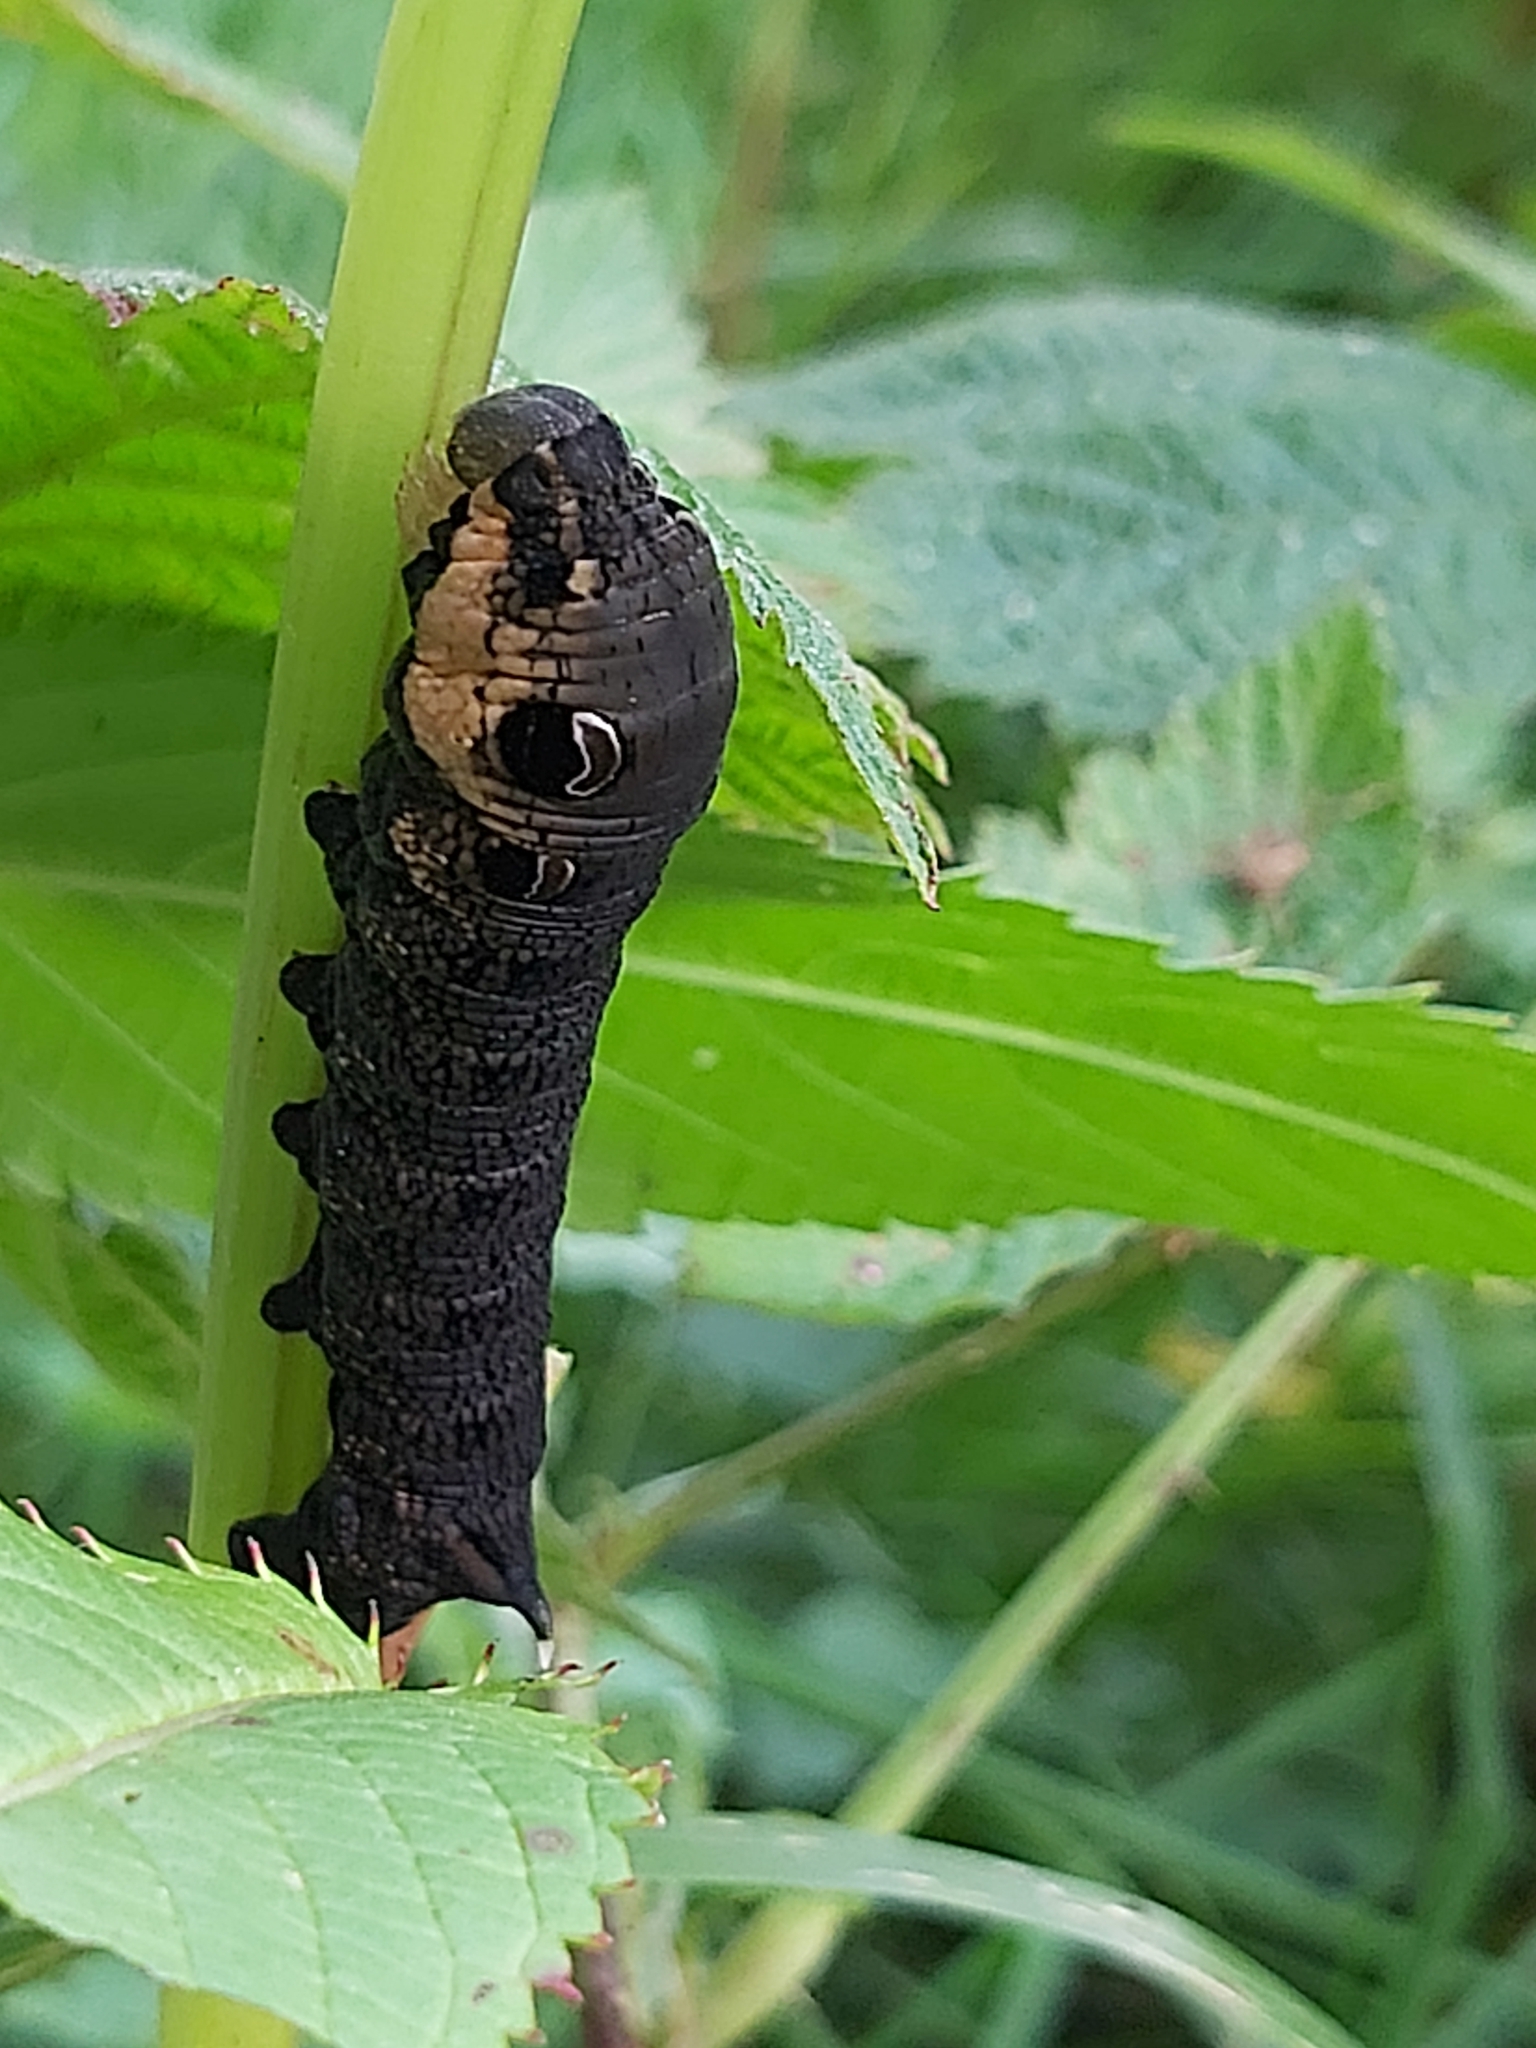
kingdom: Animalia
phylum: Arthropoda
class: Insecta
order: Lepidoptera
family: Sphingidae
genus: Deilephila
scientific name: Deilephila elpenor
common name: Elephant hawk-moth
